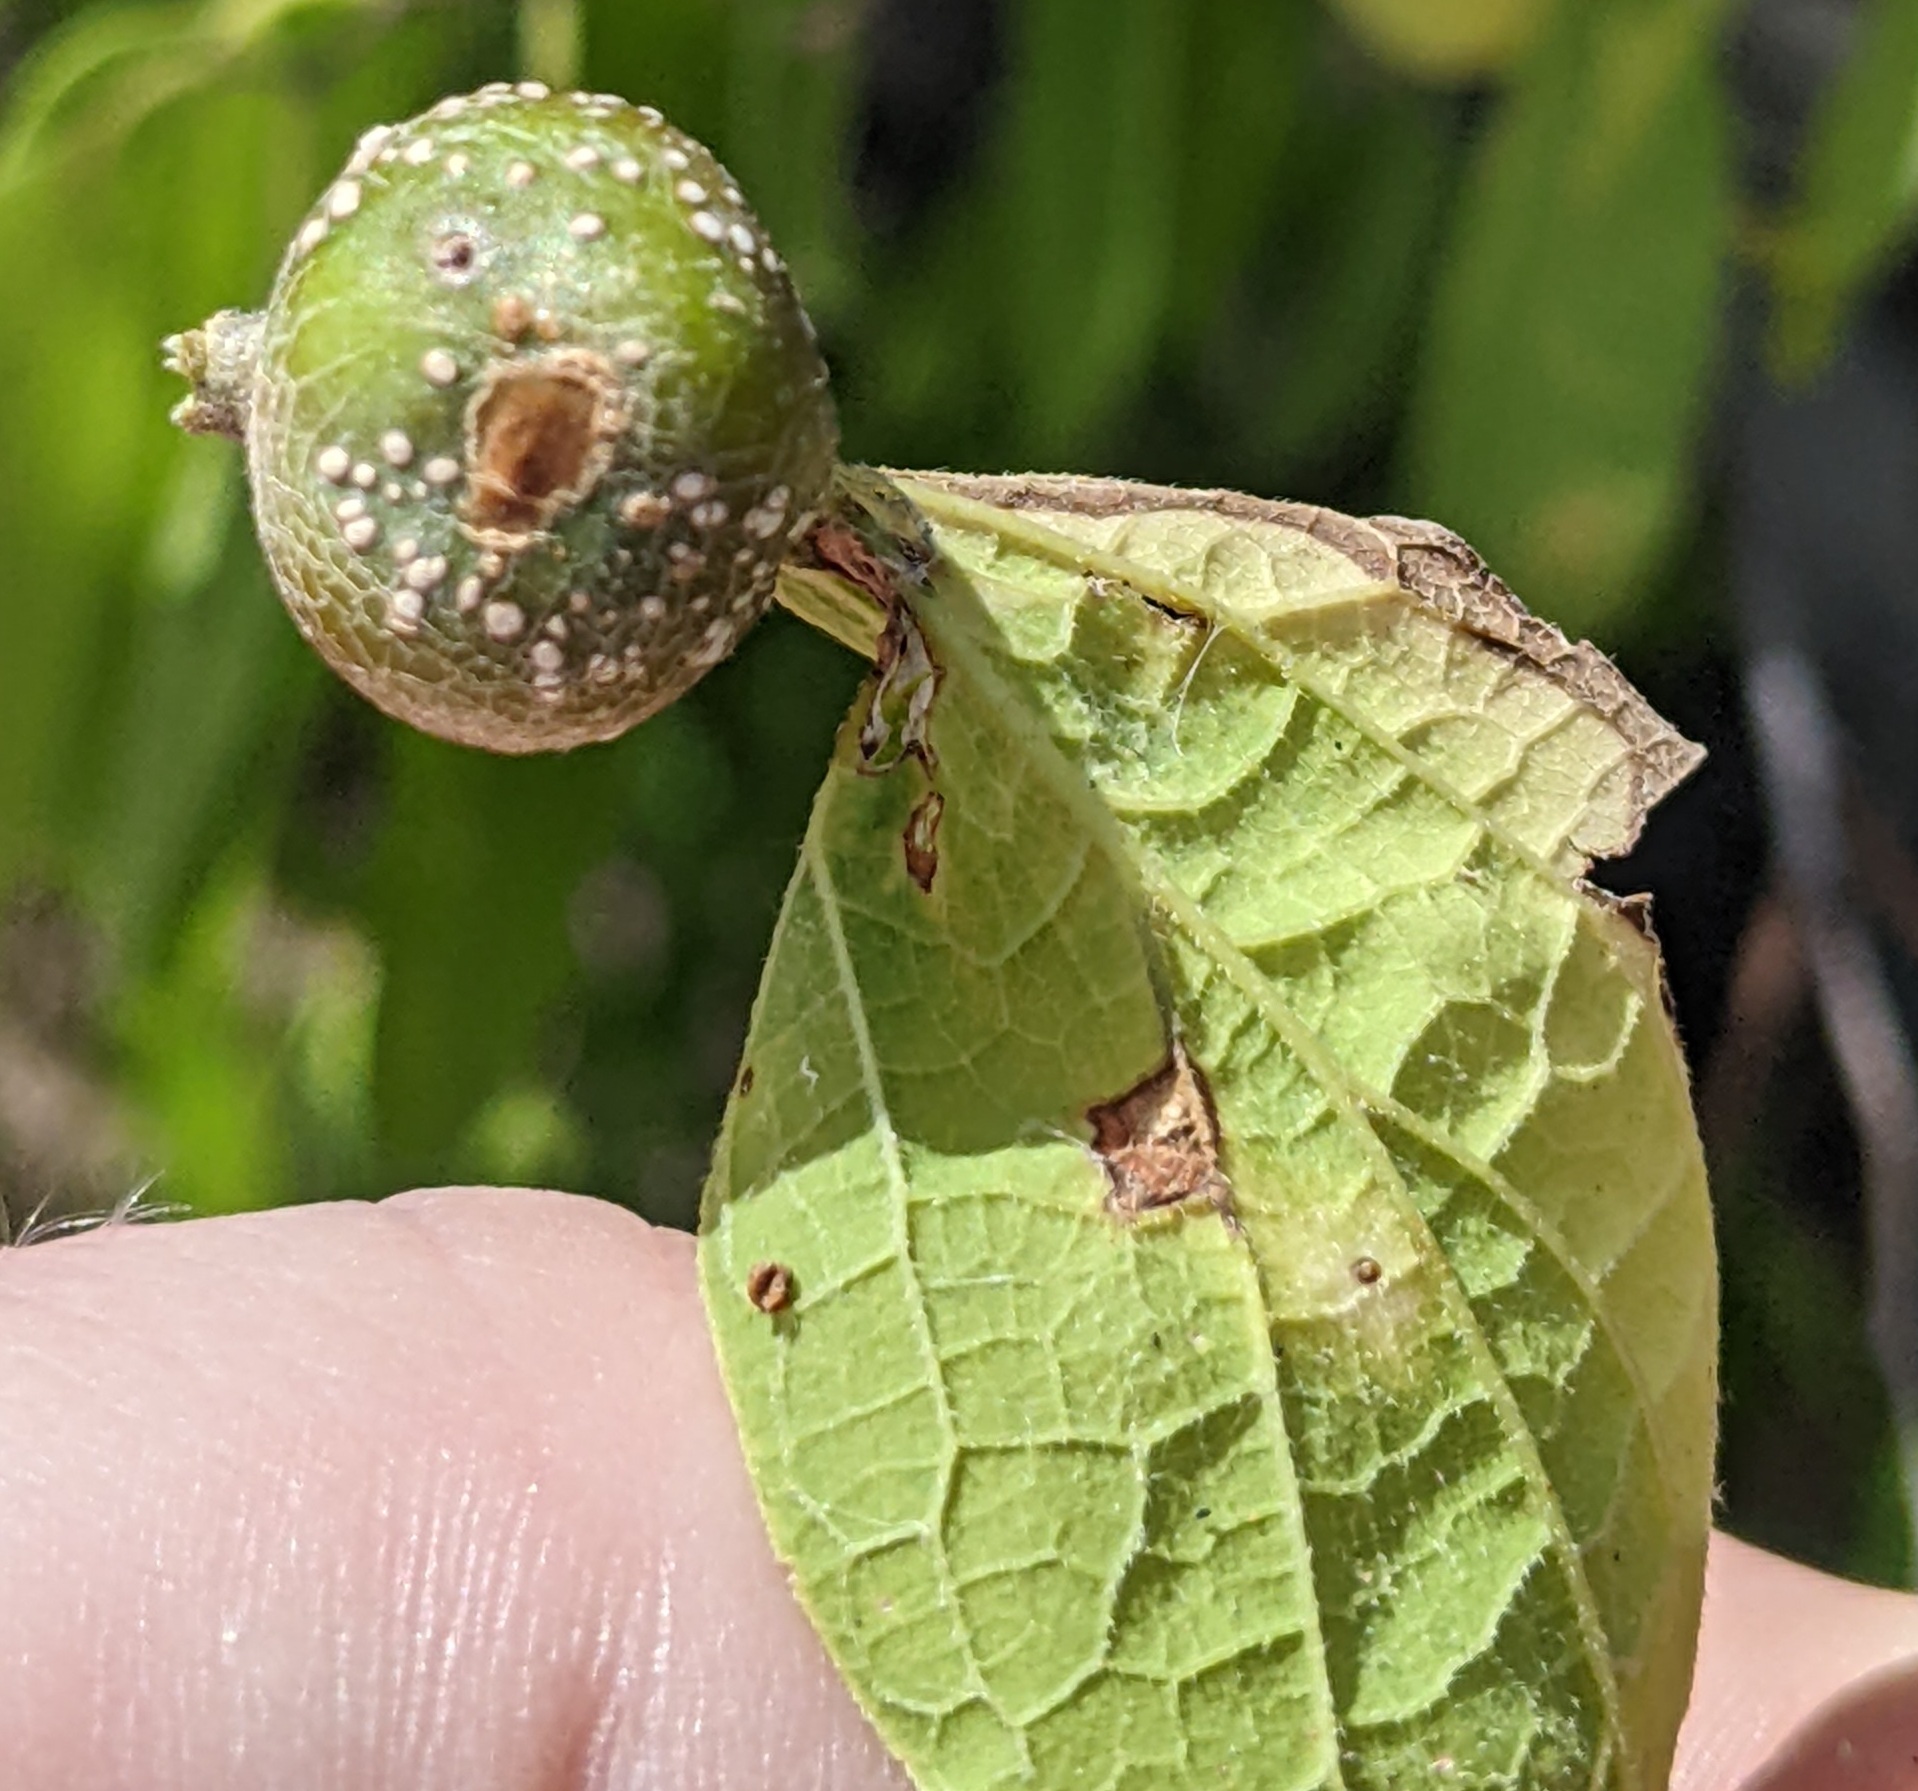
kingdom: Animalia
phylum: Arthropoda
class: Insecta
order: Hemiptera
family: Aphalaridae
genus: Pachypsylla
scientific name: Pachypsylla venusta
